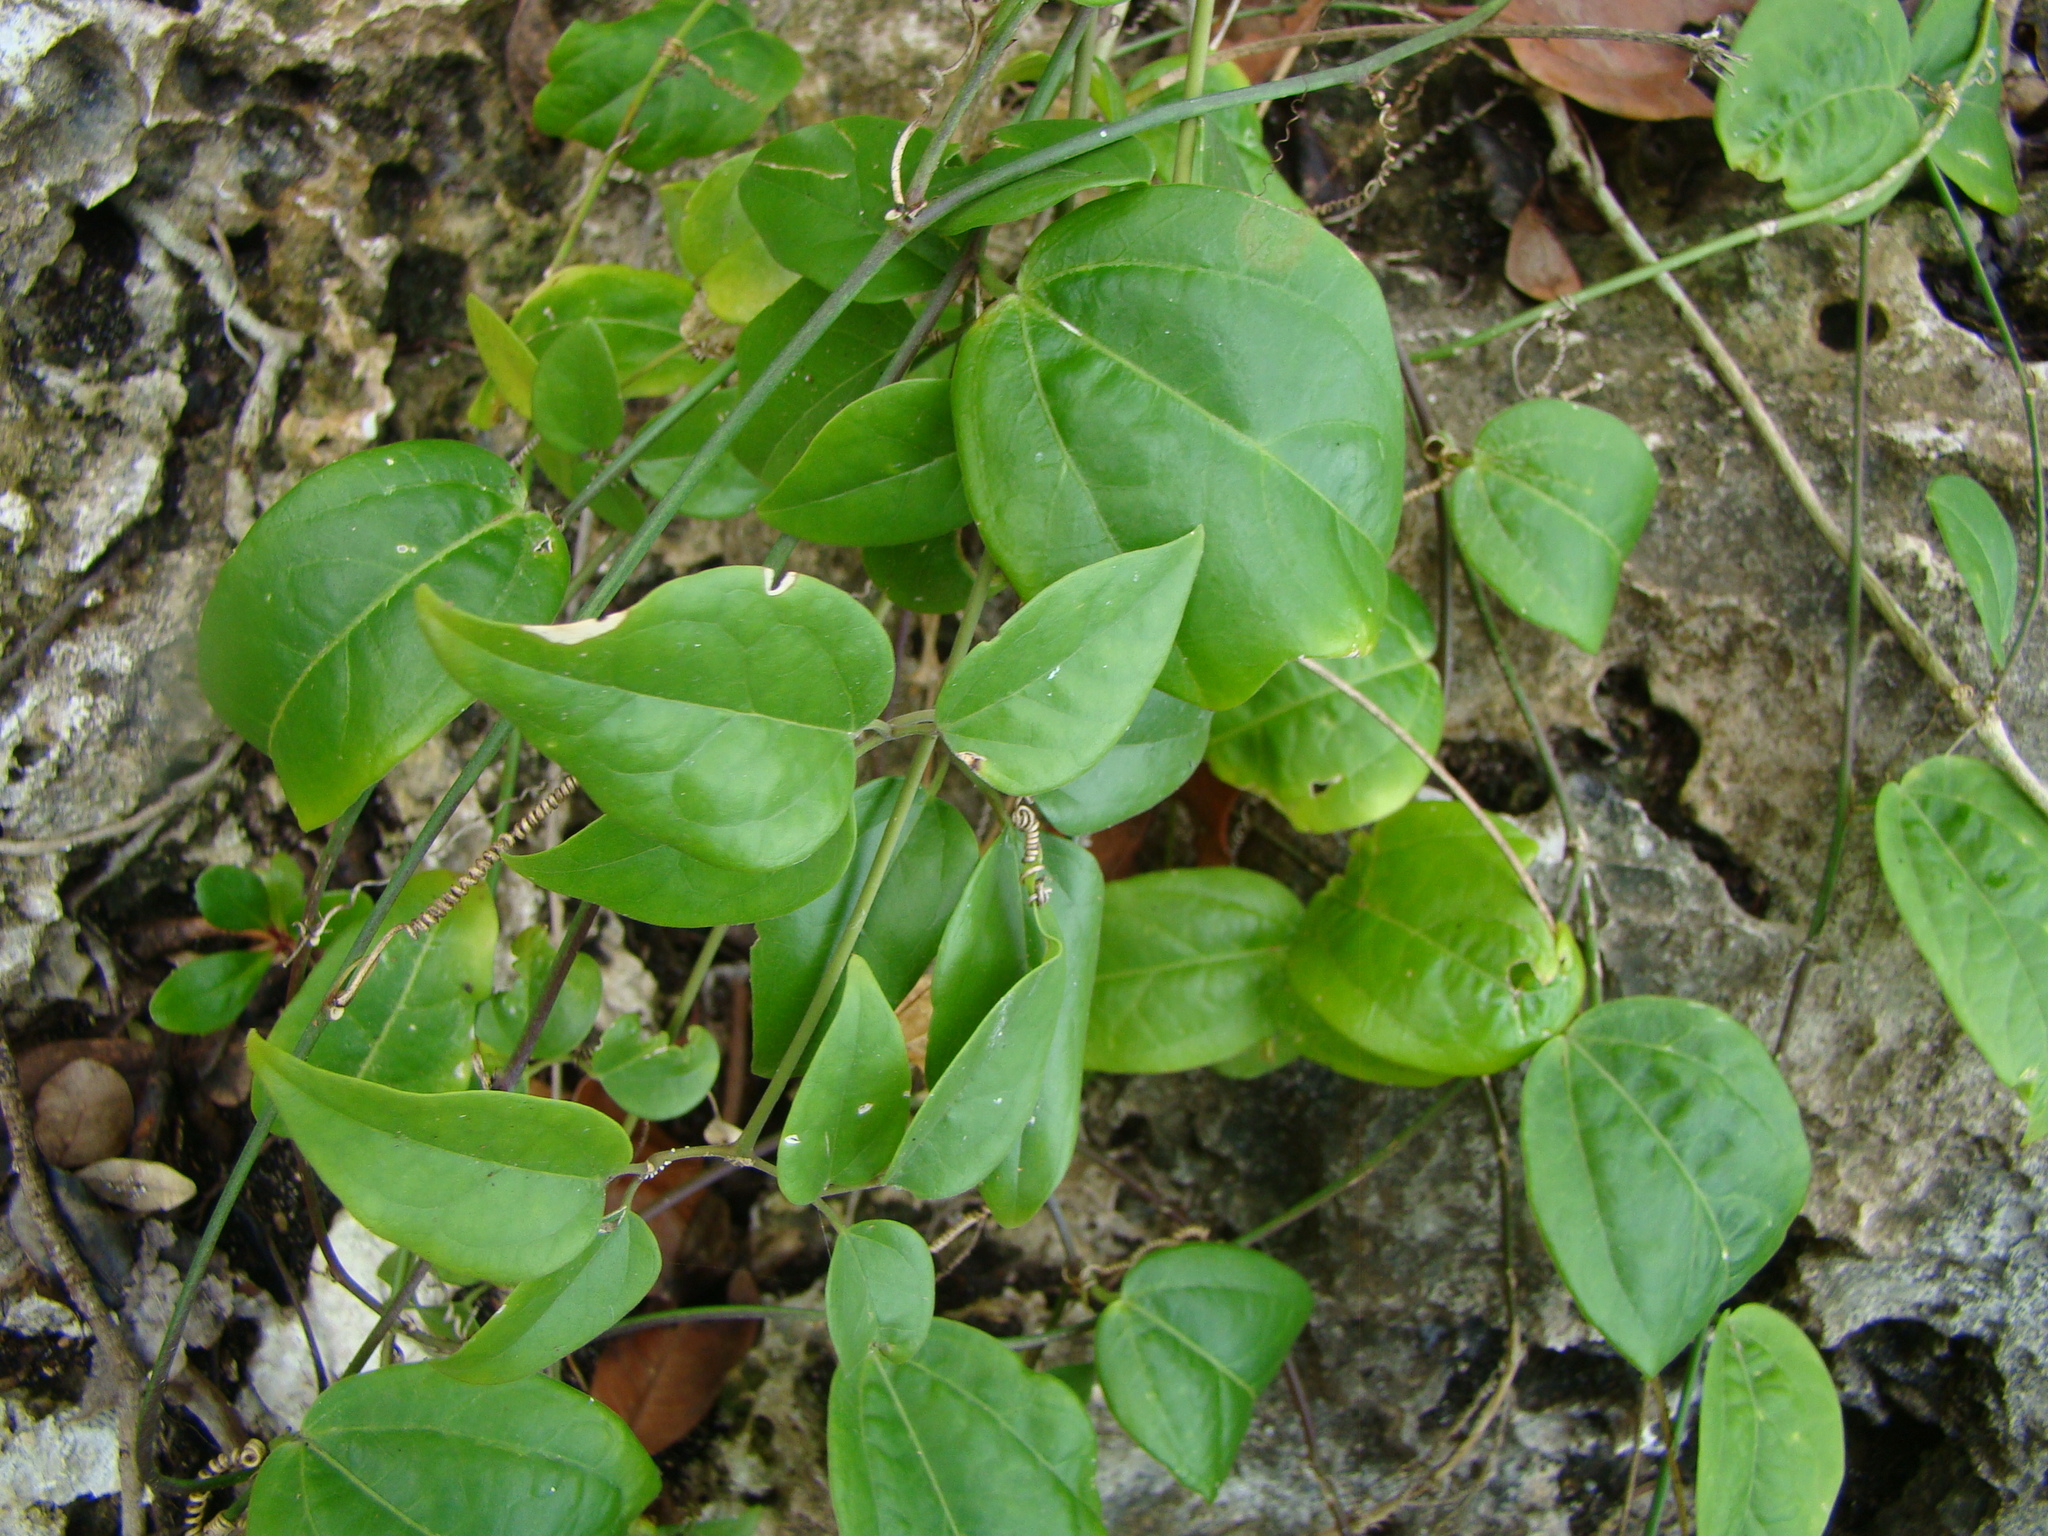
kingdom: Plantae
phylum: Tracheophyta
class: Magnoliopsida
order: Malpighiales
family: Passifloraceae
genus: Passiflora
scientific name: Passiflora pallida
